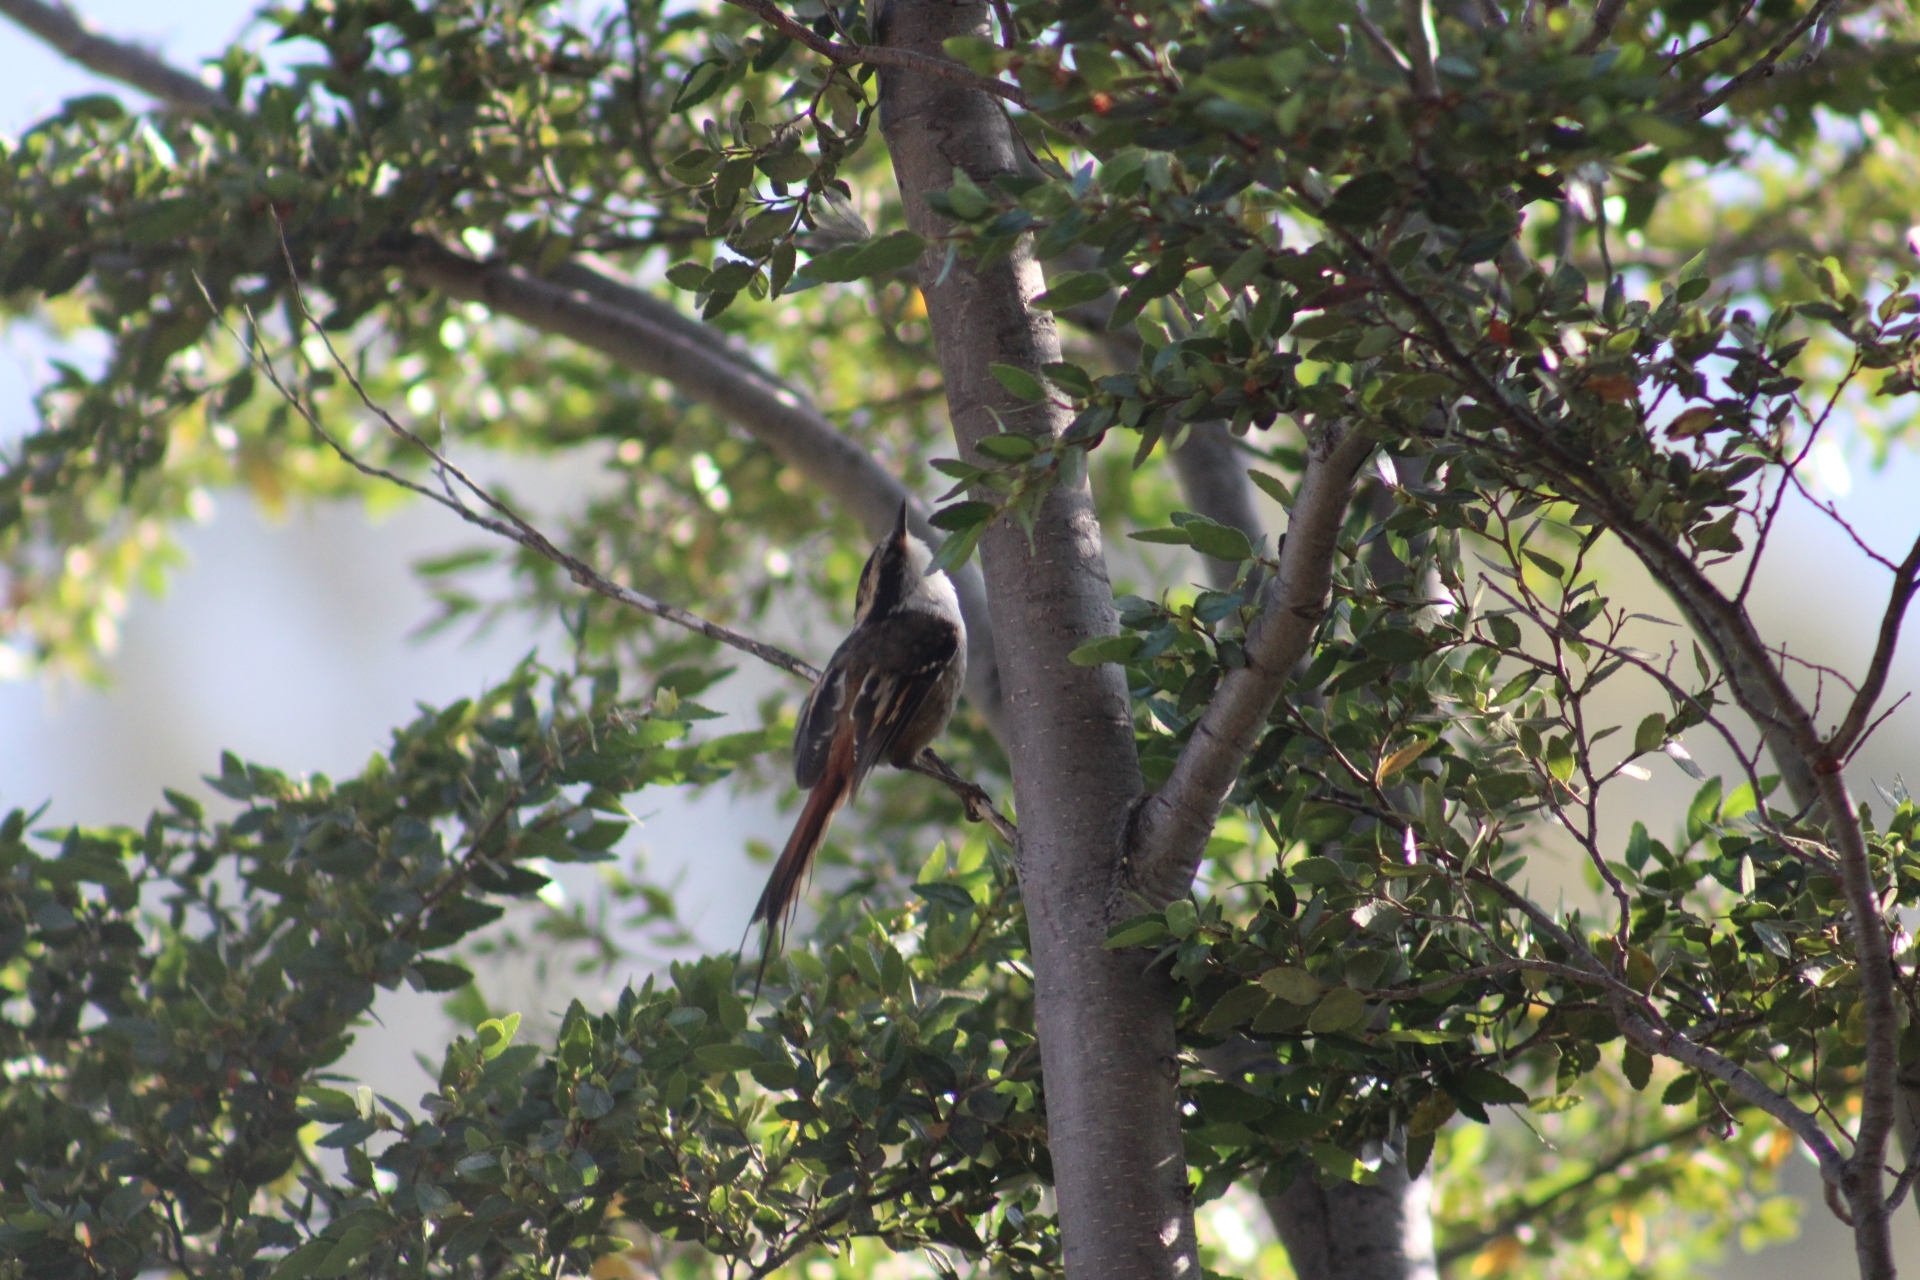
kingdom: Animalia
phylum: Chordata
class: Aves
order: Passeriformes
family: Furnariidae
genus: Aphrastura
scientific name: Aphrastura spinicauda
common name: Thorn-tailed rayadito
